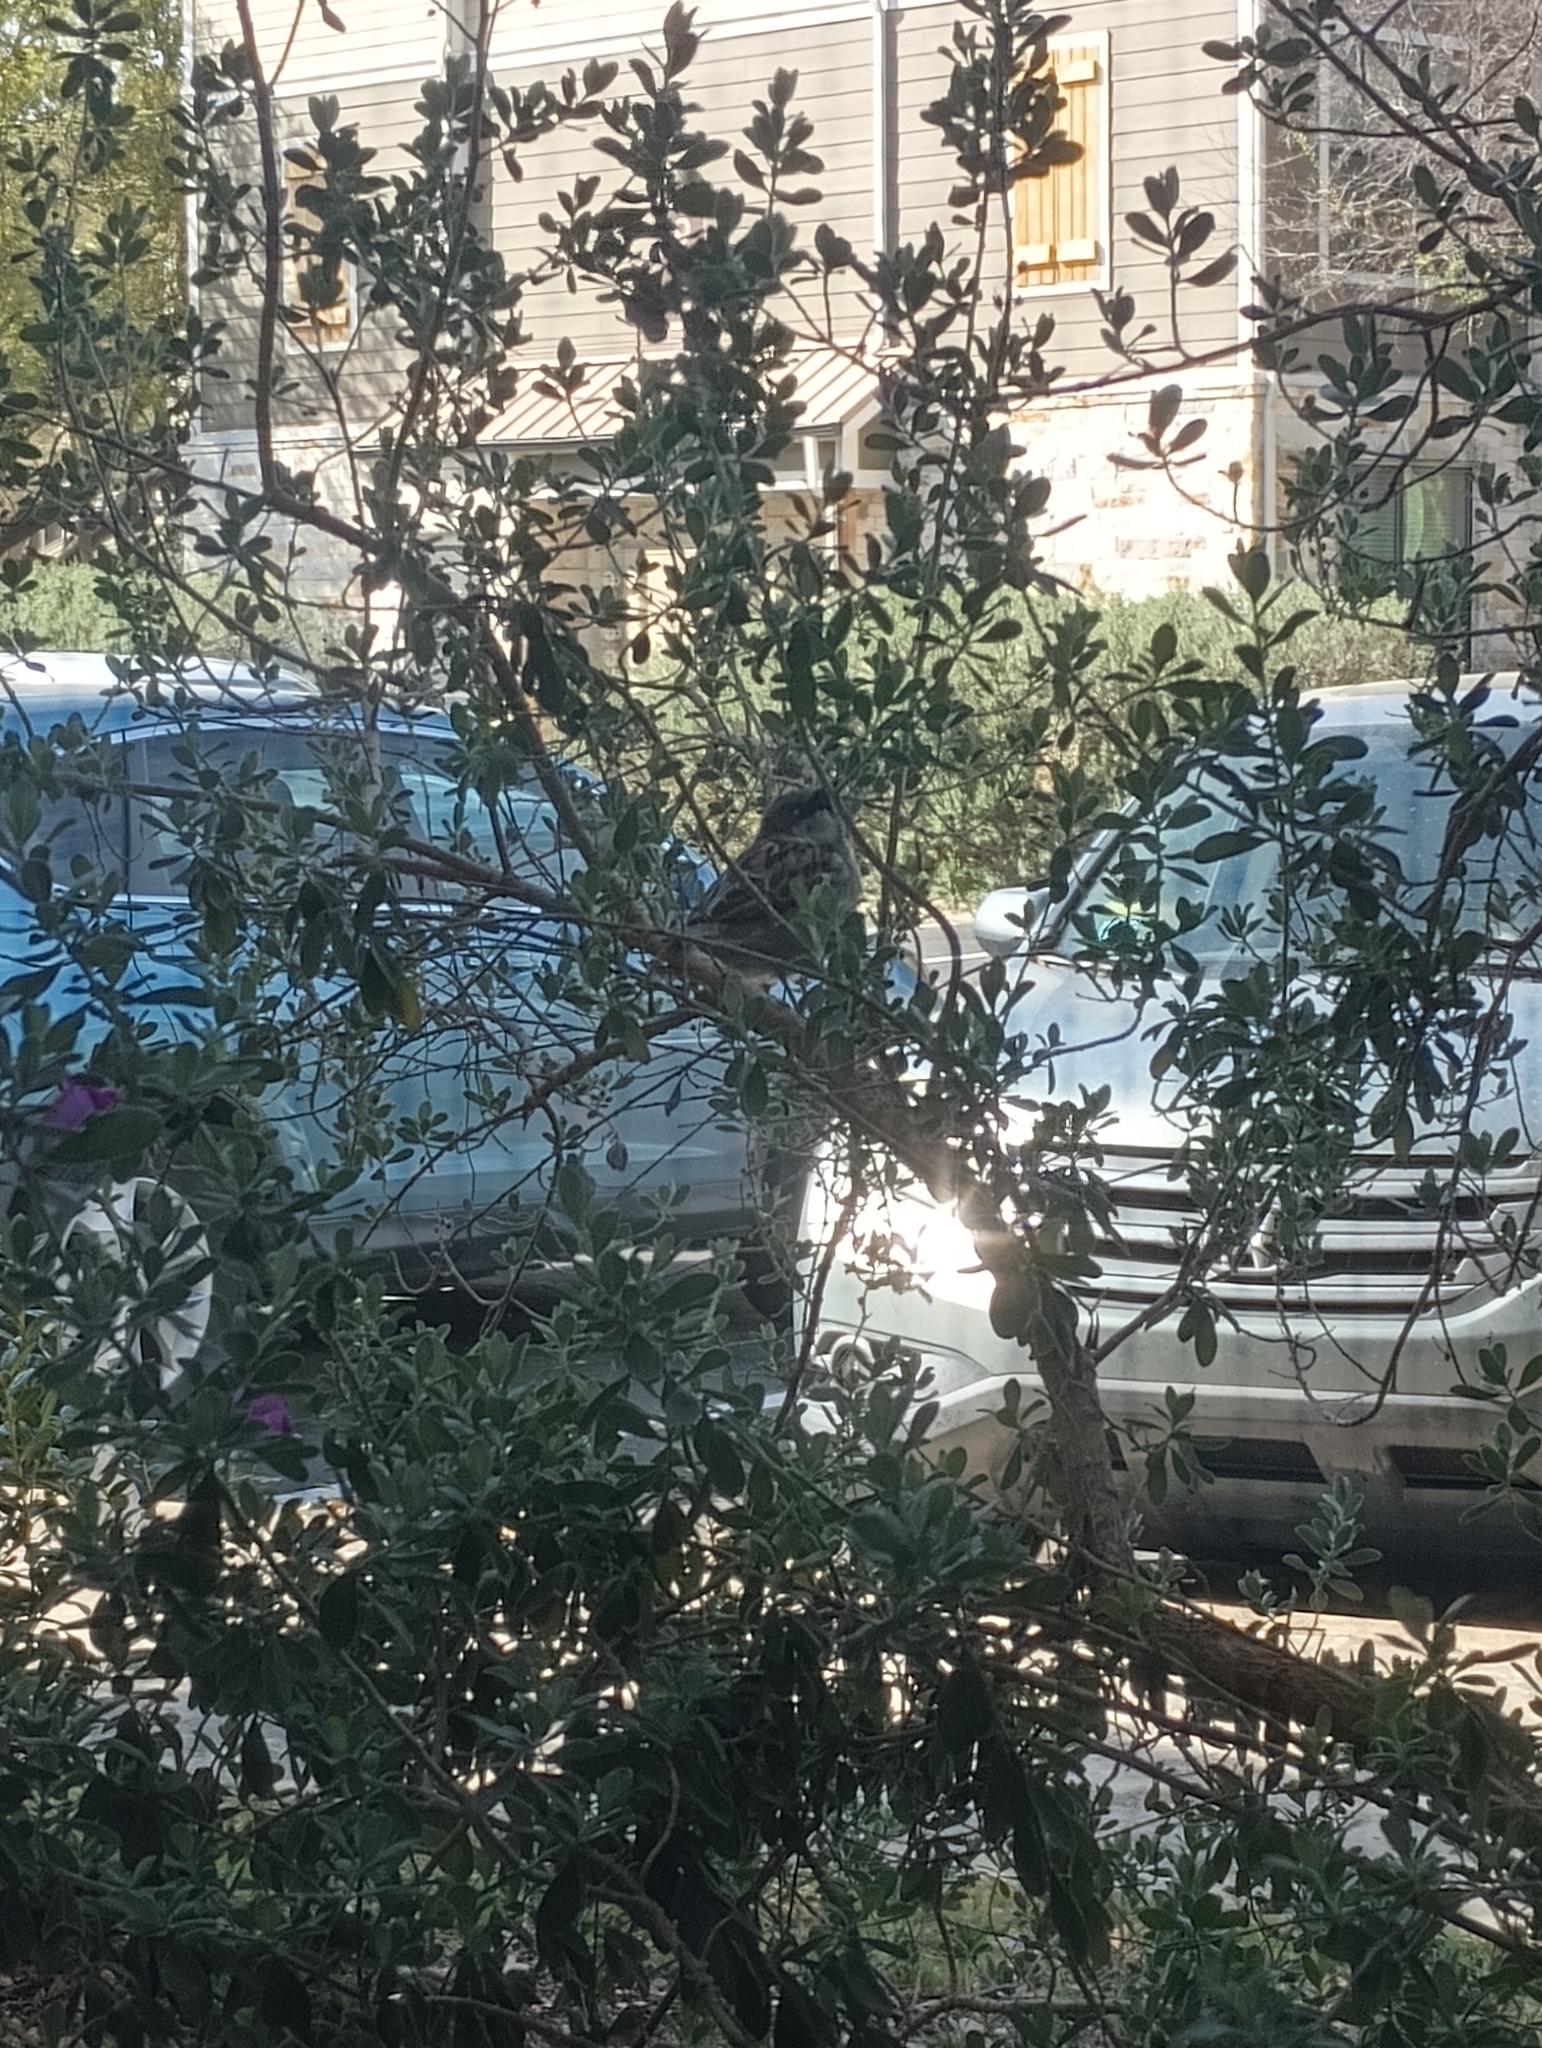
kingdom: Animalia
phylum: Chordata
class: Aves
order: Passeriformes
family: Passeridae
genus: Passer
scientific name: Passer domesticus
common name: House sparrow
